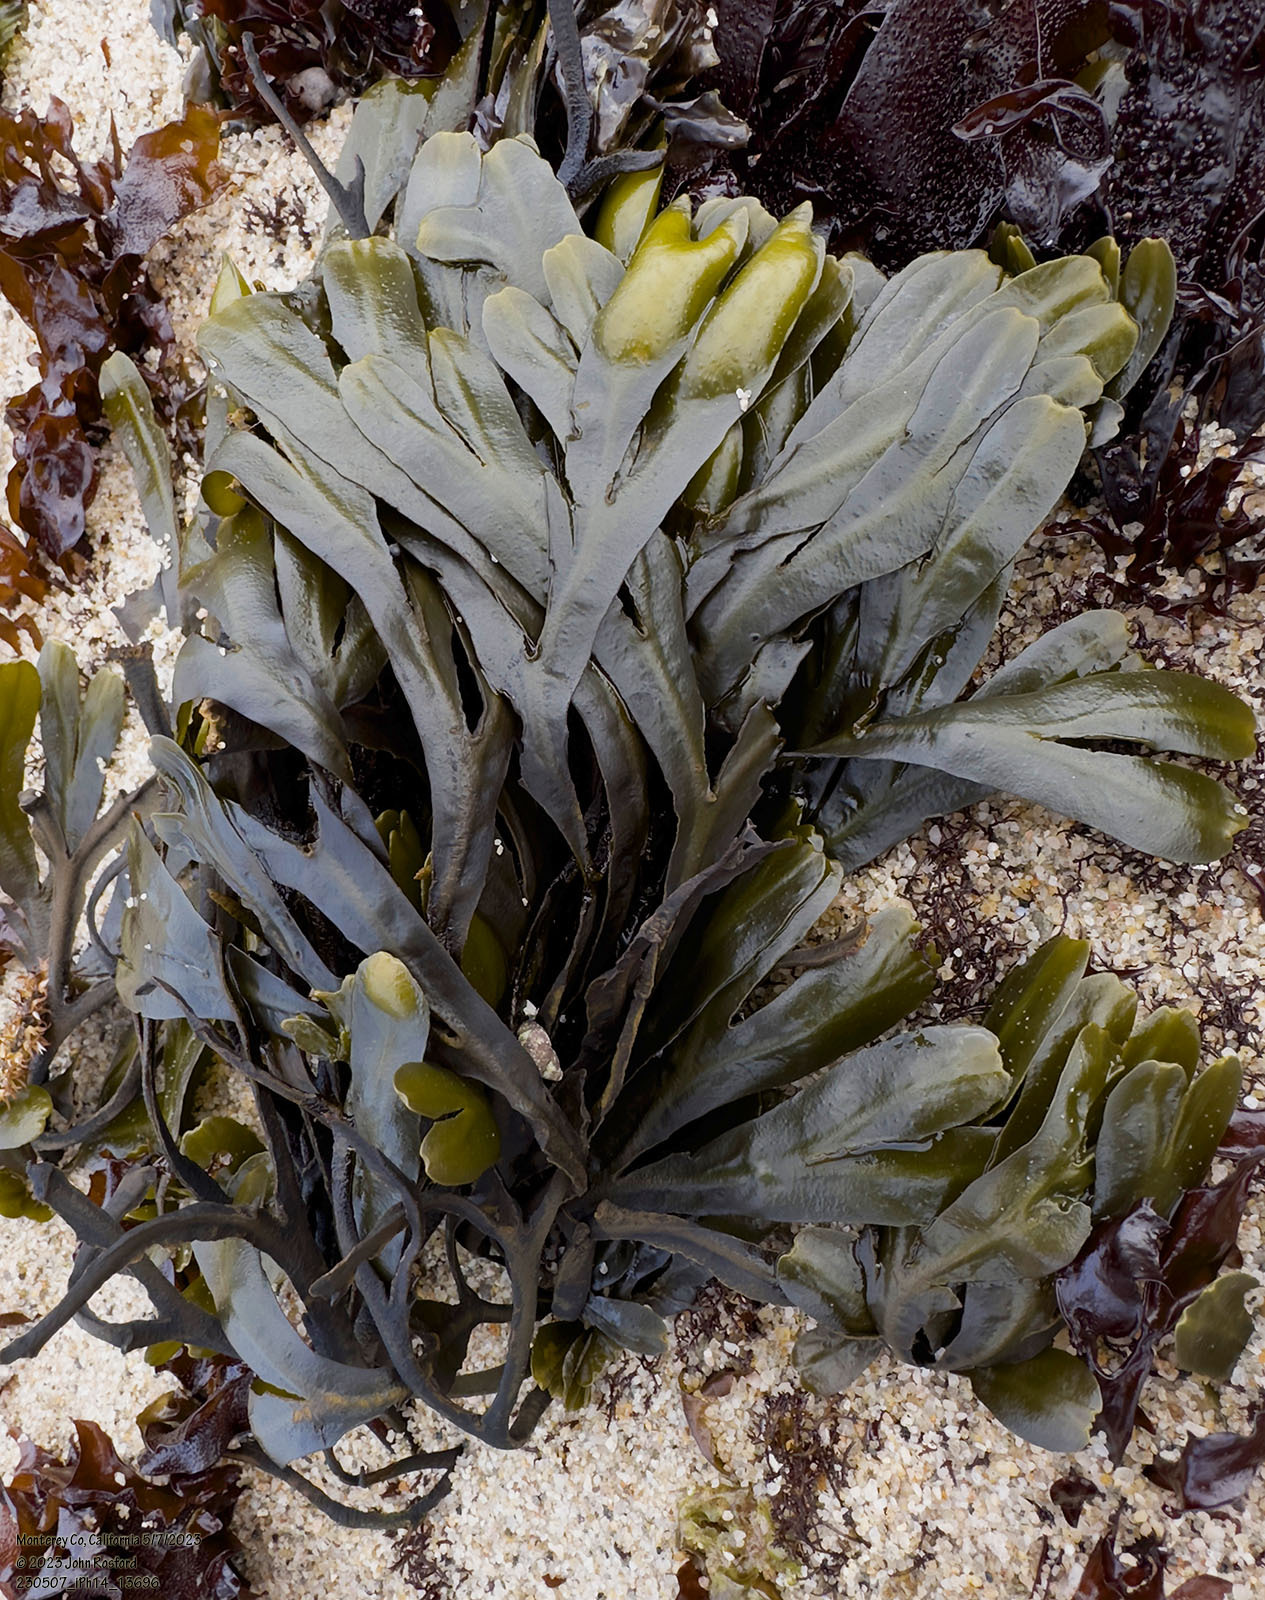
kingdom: Chromista
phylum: Ochrophyta
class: Phaeophyceae
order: Fucales
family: Fucaceae
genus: Fucus
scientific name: Fucus distichus
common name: Rockweed
